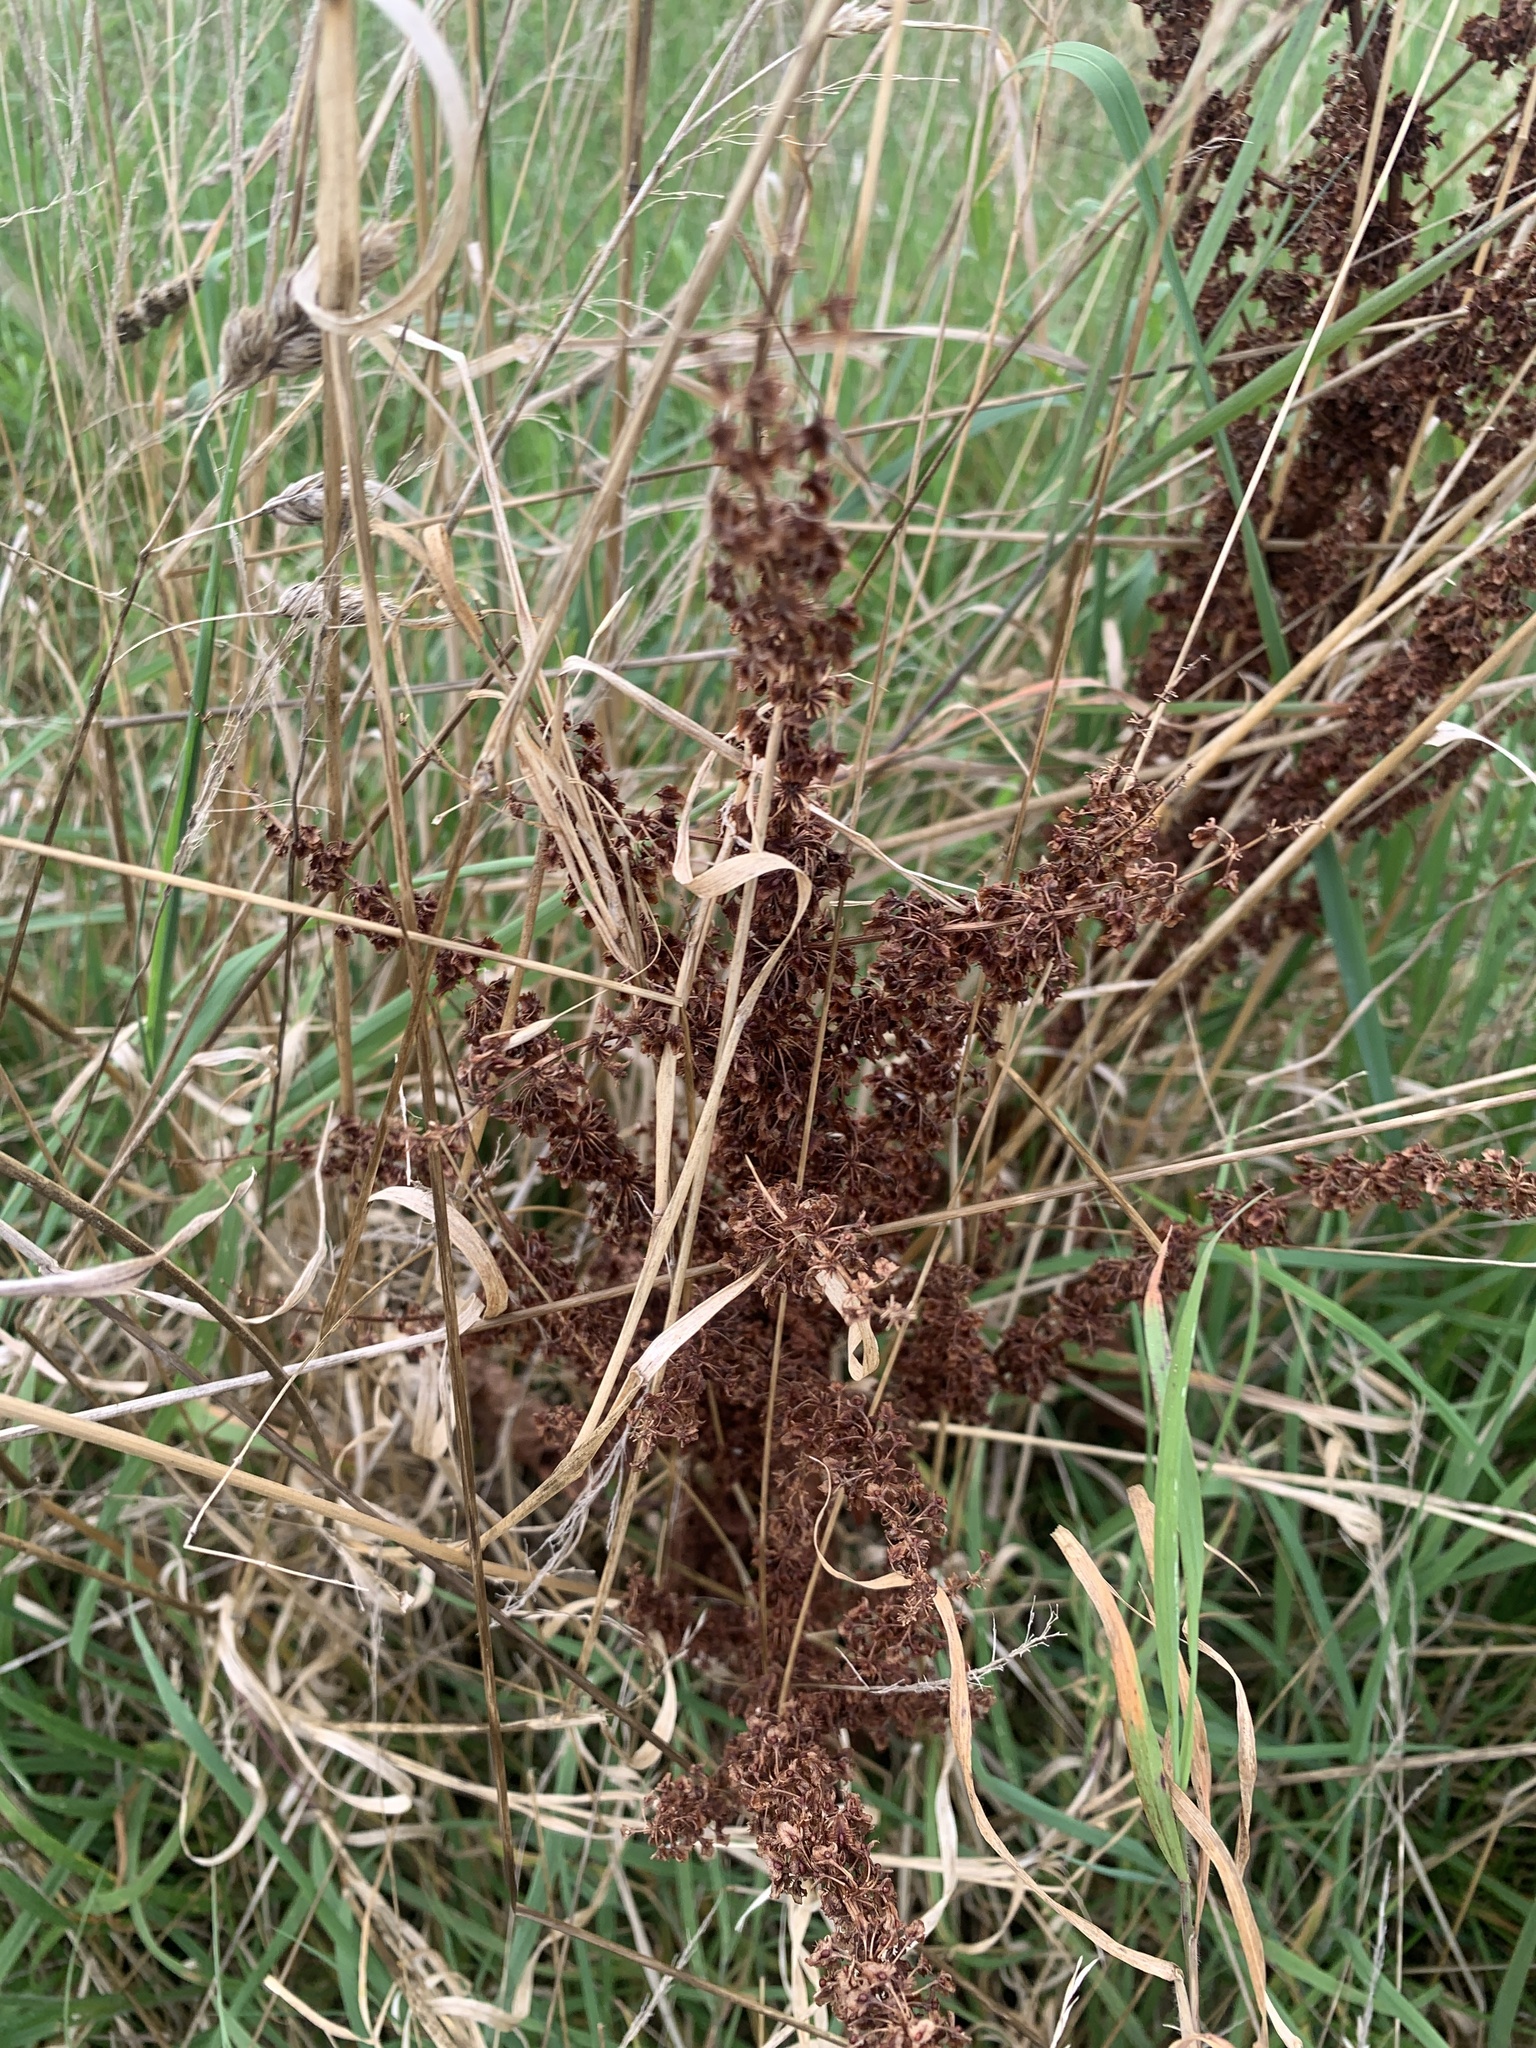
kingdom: Plantae
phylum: Tracheophyta
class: Magnoliopsida
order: Caryophyllales
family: Polygonaceae
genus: Rumex
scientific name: Rumex crispus
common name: Curled dock
